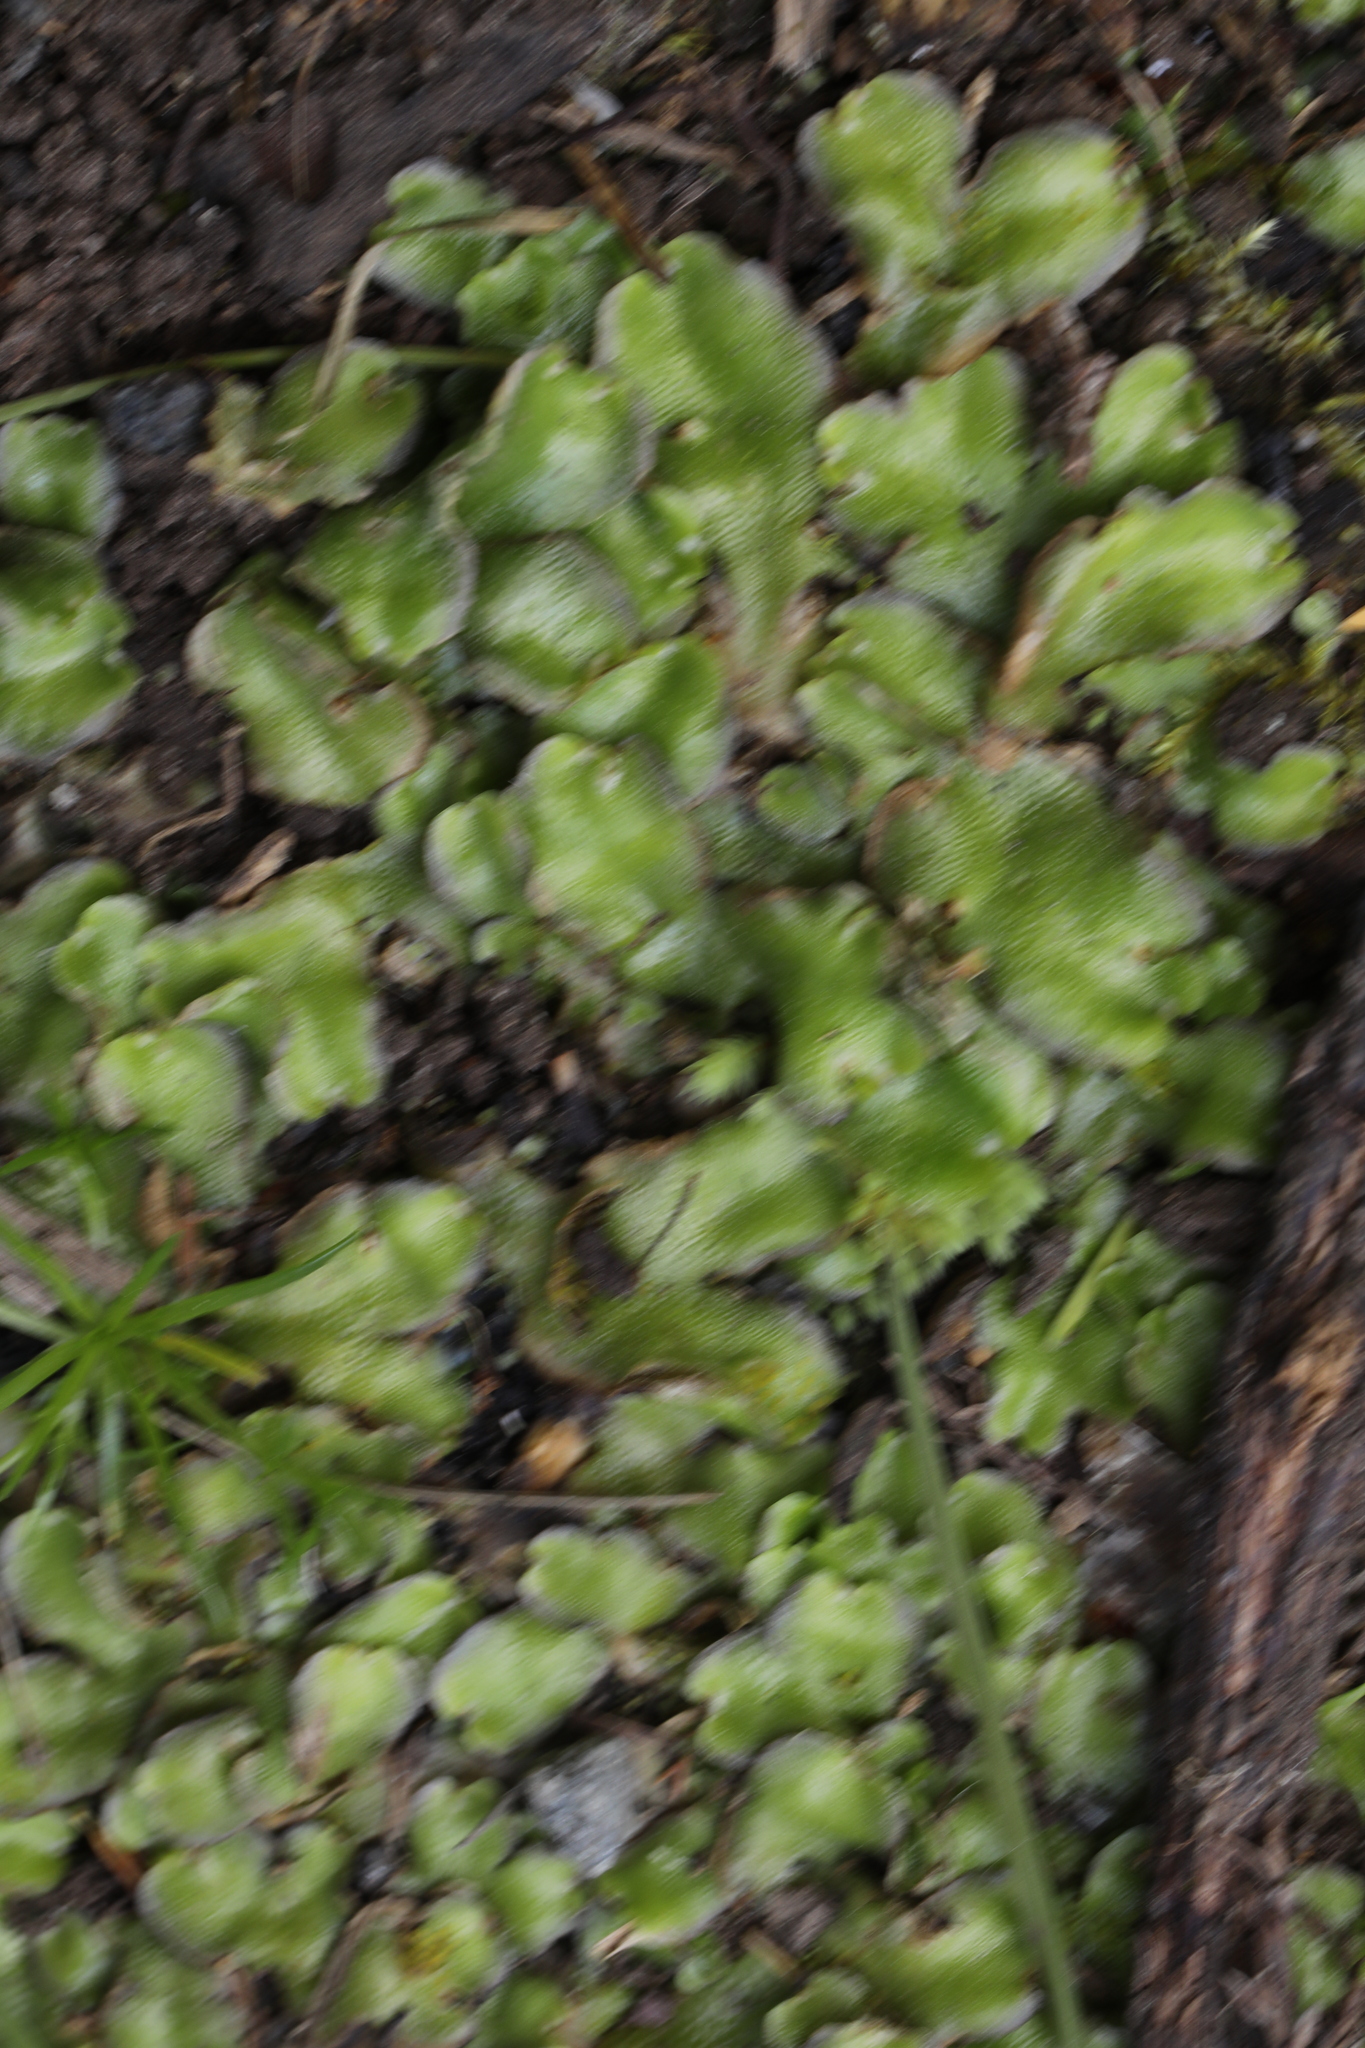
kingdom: Plantae
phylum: Marchantiophyta
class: Marchantiopsida
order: Lunulariales
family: Lunulariaceae
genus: Lunularia
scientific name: Lunularia cruciata
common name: Crescent-cup liverwort
